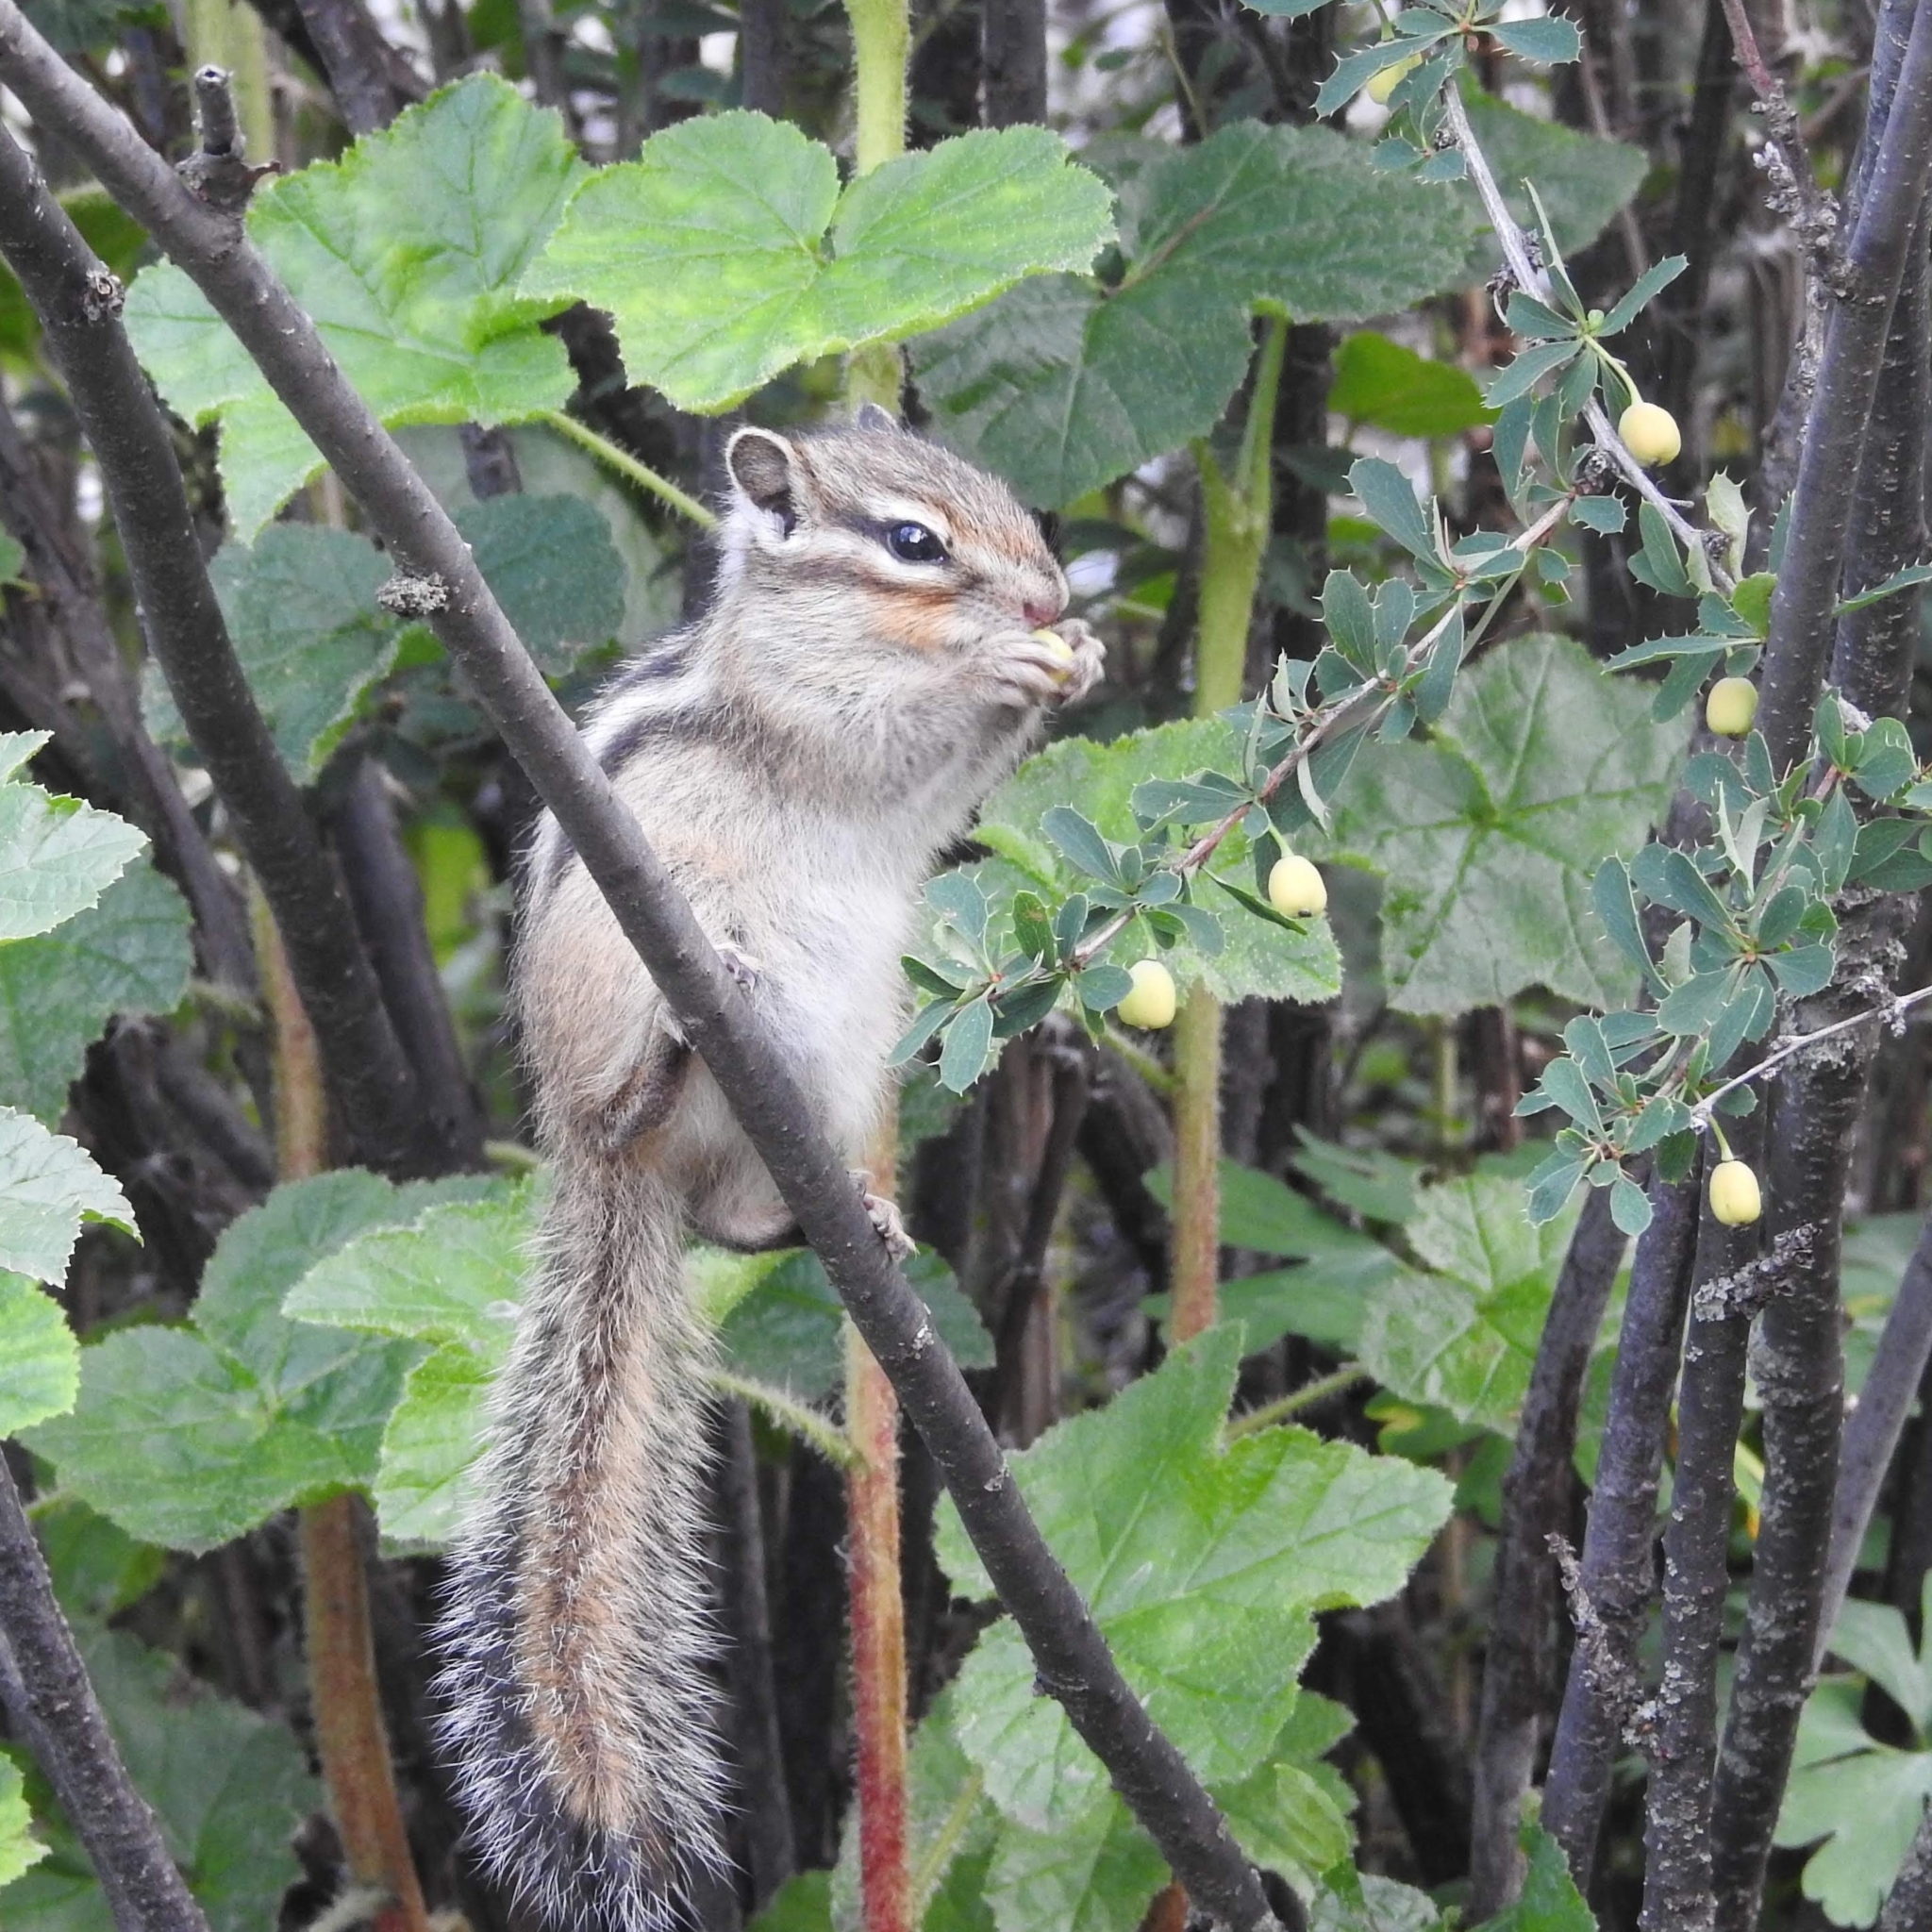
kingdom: Animalia
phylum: Chordata
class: Mammalia
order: Rodentia
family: Sciuridae
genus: Tamias
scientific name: Tamias sibiricus
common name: Siberian chipmunk
